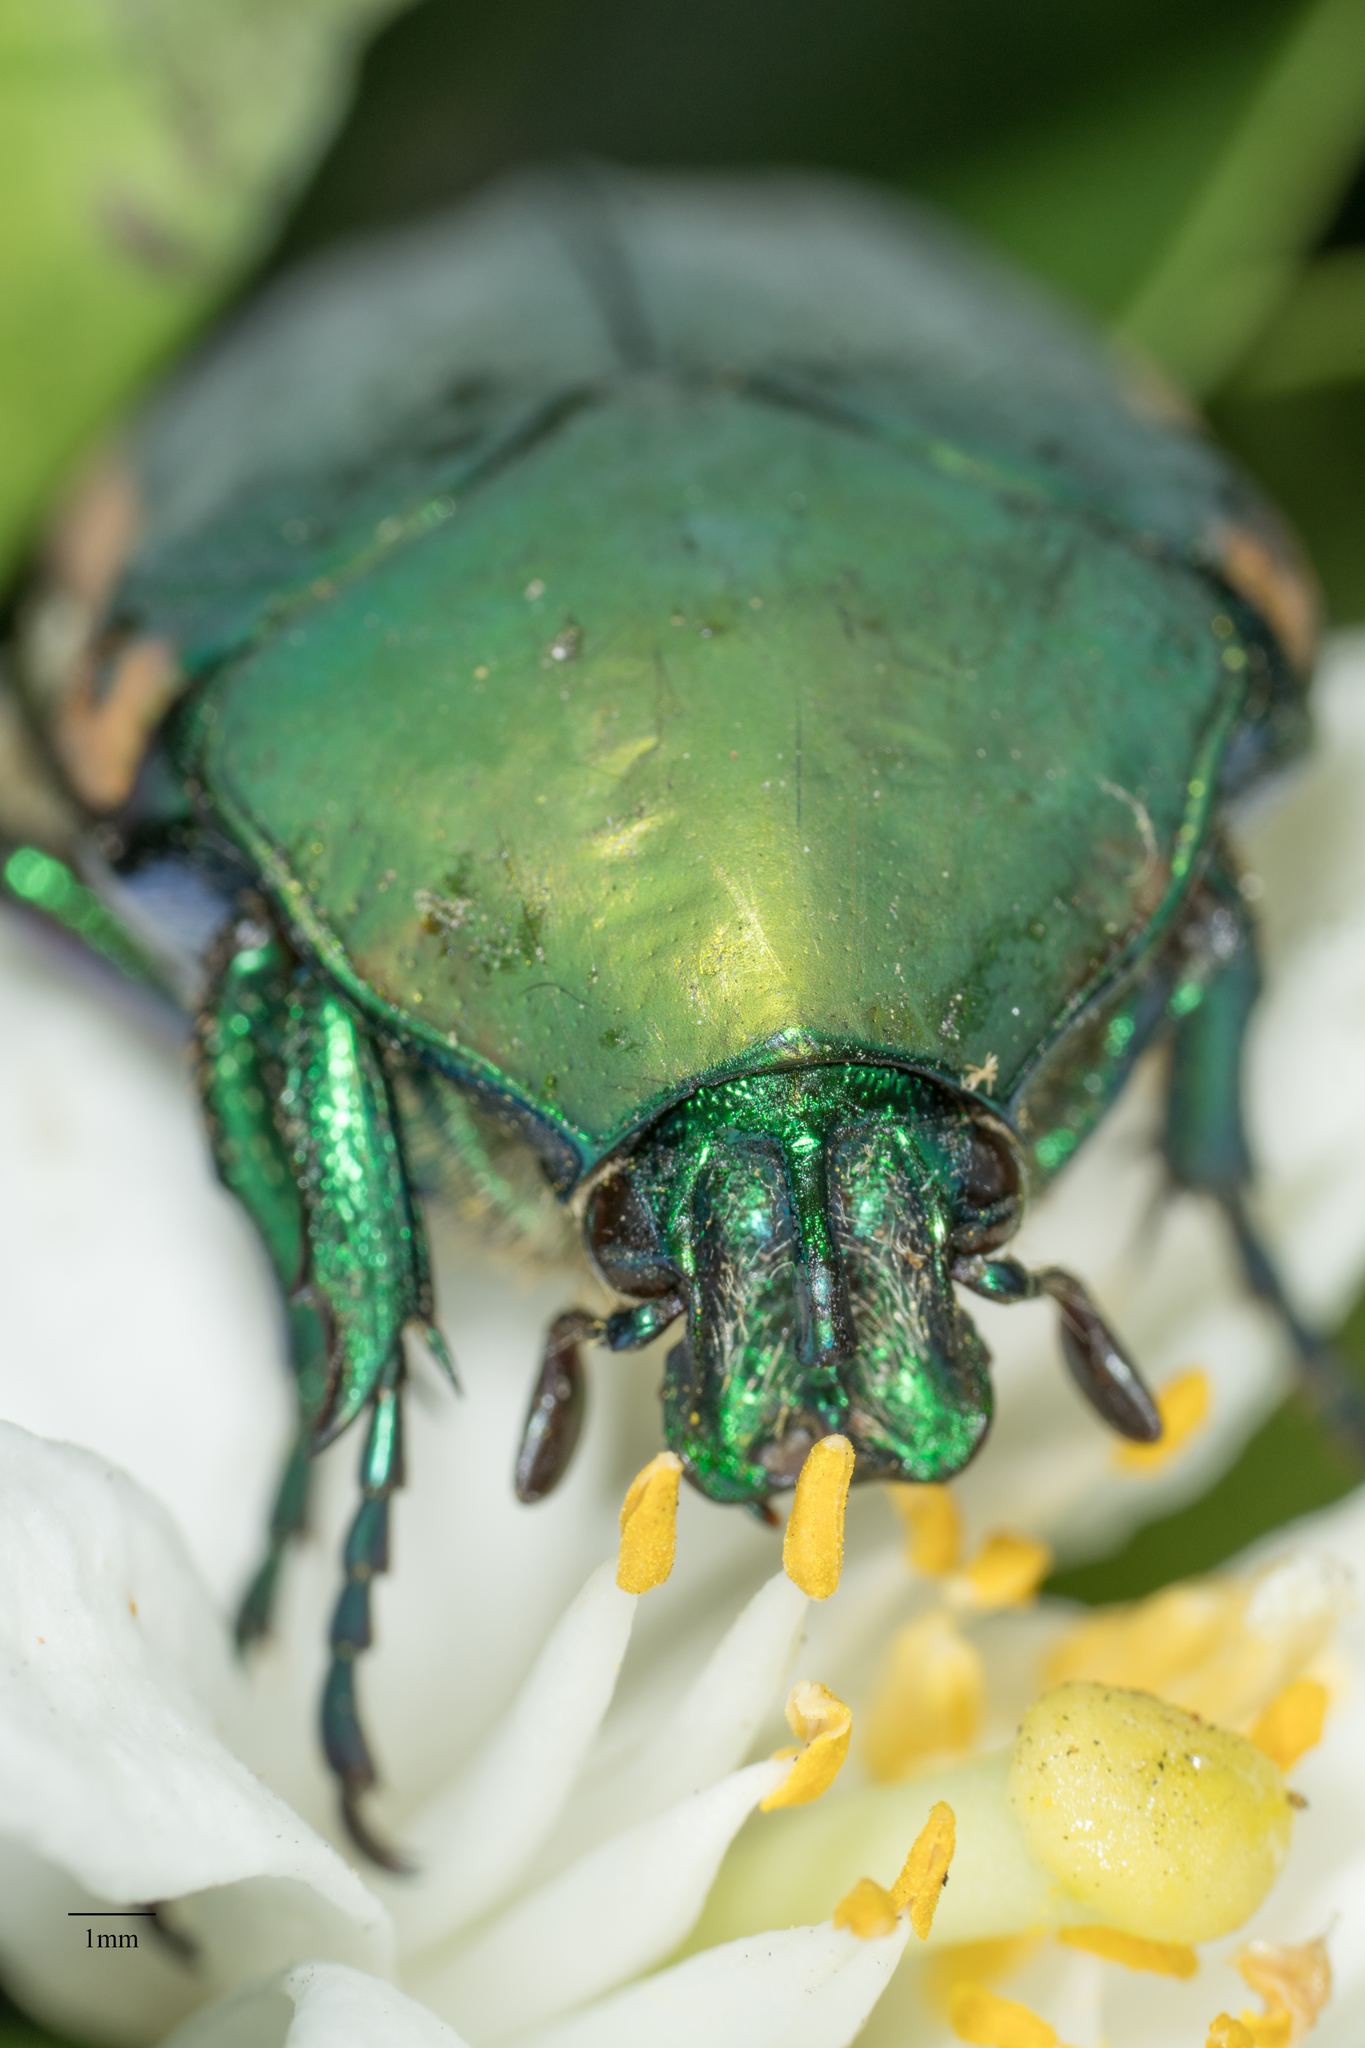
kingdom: Animalia
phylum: Arthropoda
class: Insecta
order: Coleoptera
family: Scarabaeidae
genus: Cotinis
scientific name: Cotinis mutabilis
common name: Figeater beetle
